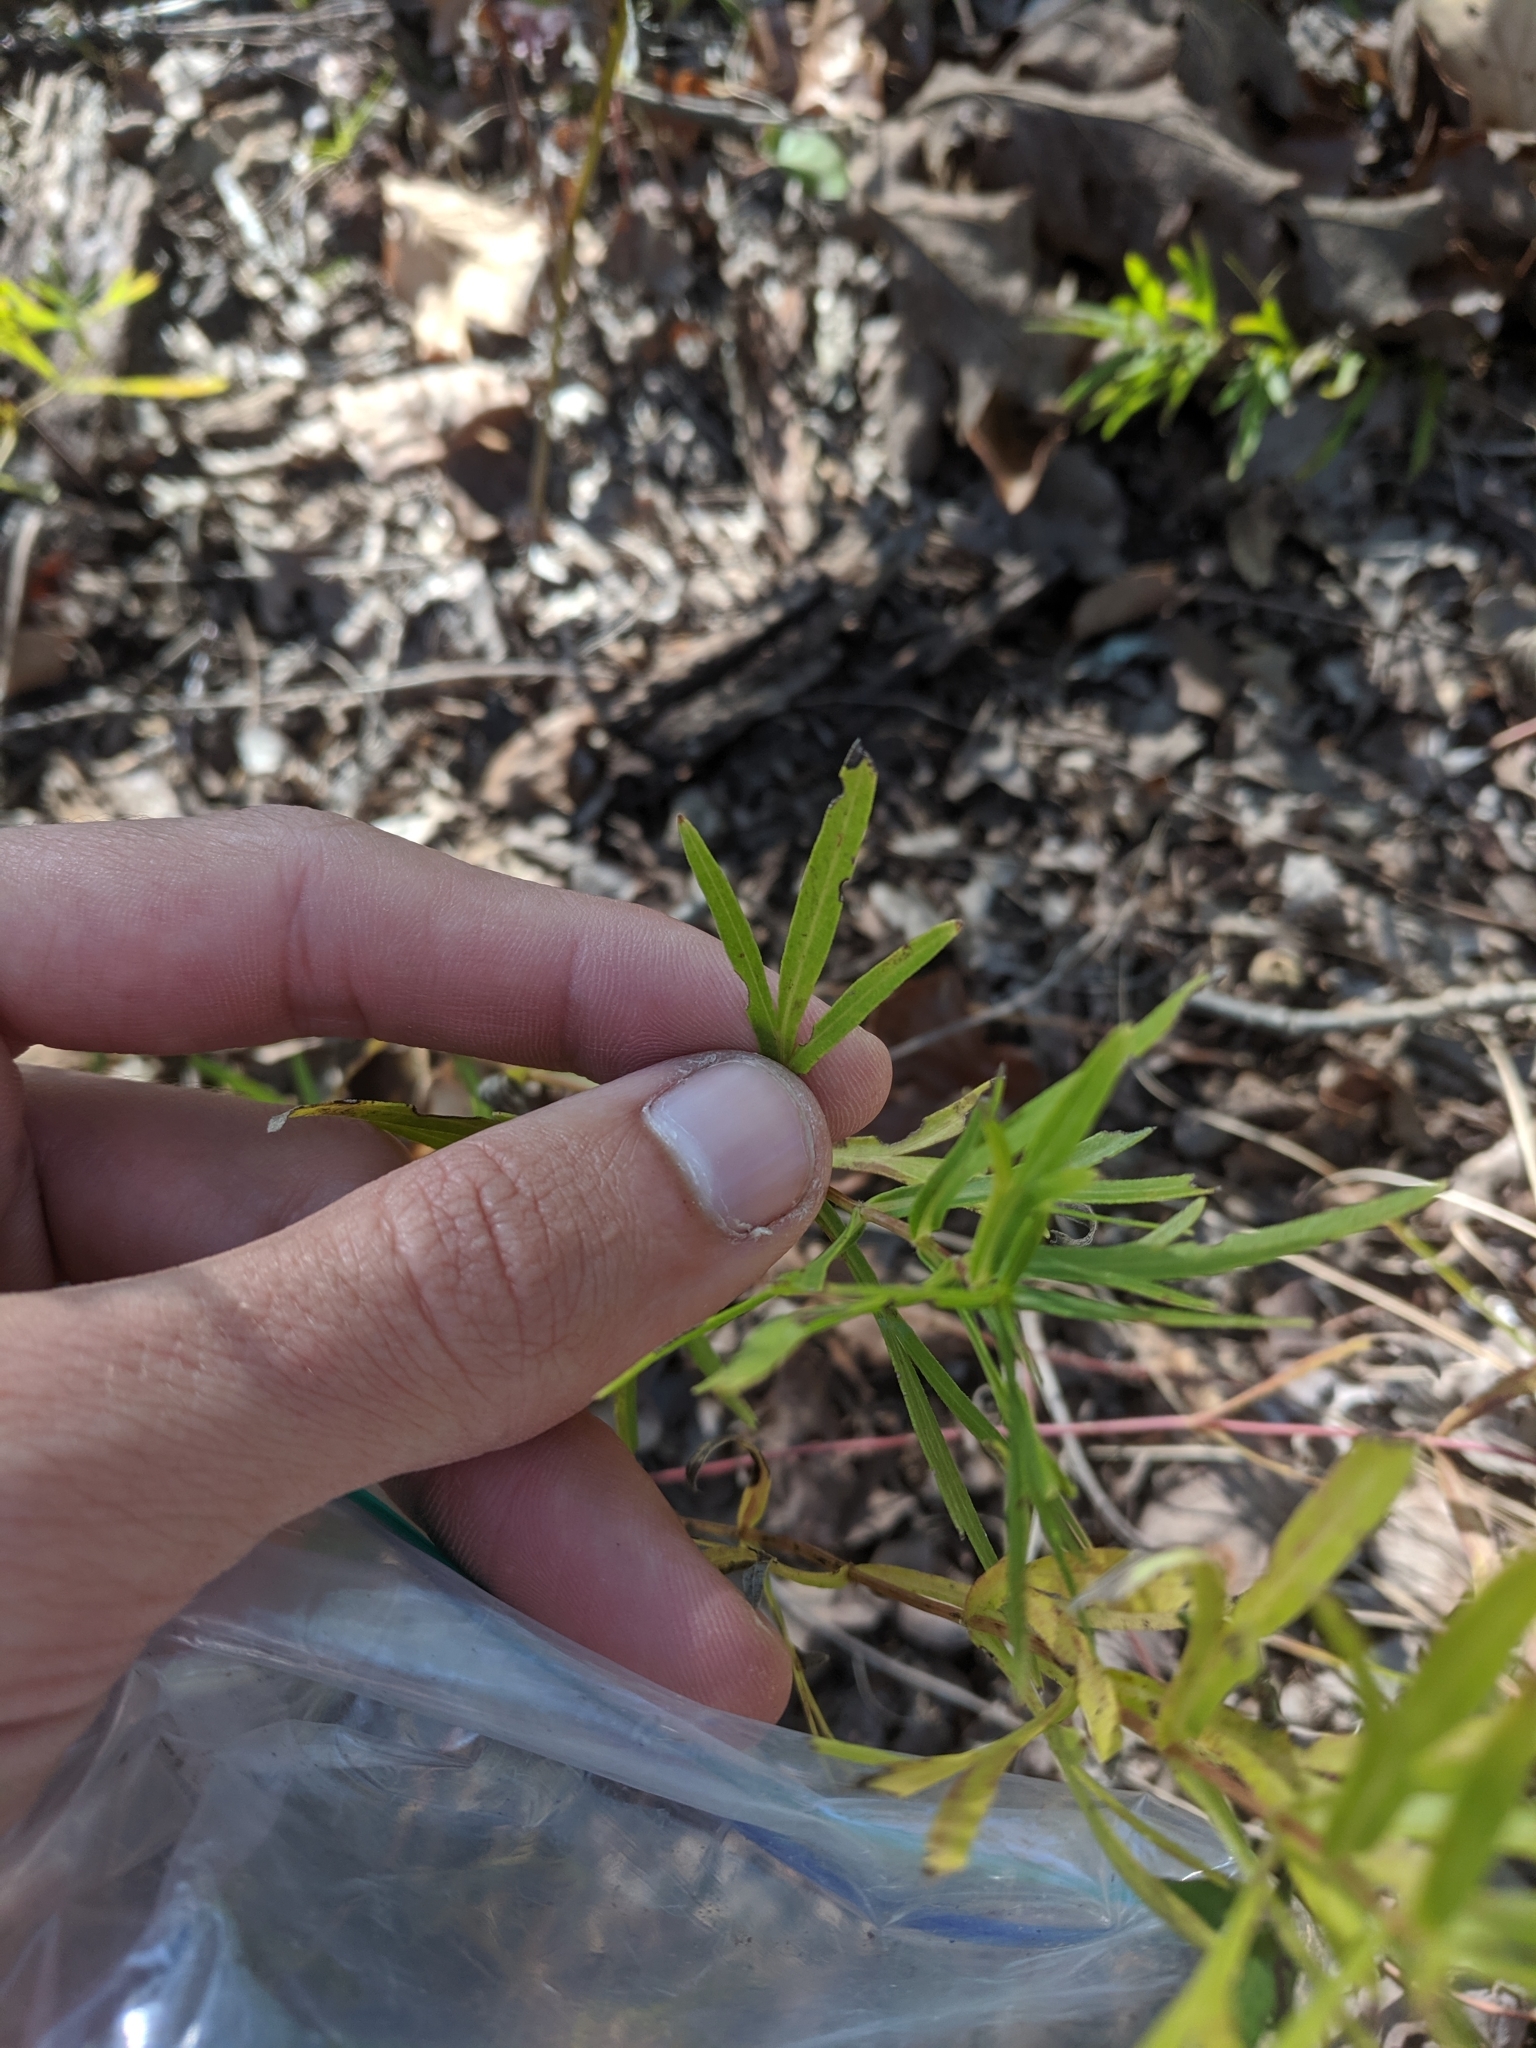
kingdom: Plantae
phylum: Tracheophyta
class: Magnoliopsida
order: Asterales
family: Asteraceae
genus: Coreopsis
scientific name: Coreopsis palmata
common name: Prairie coreopsis
